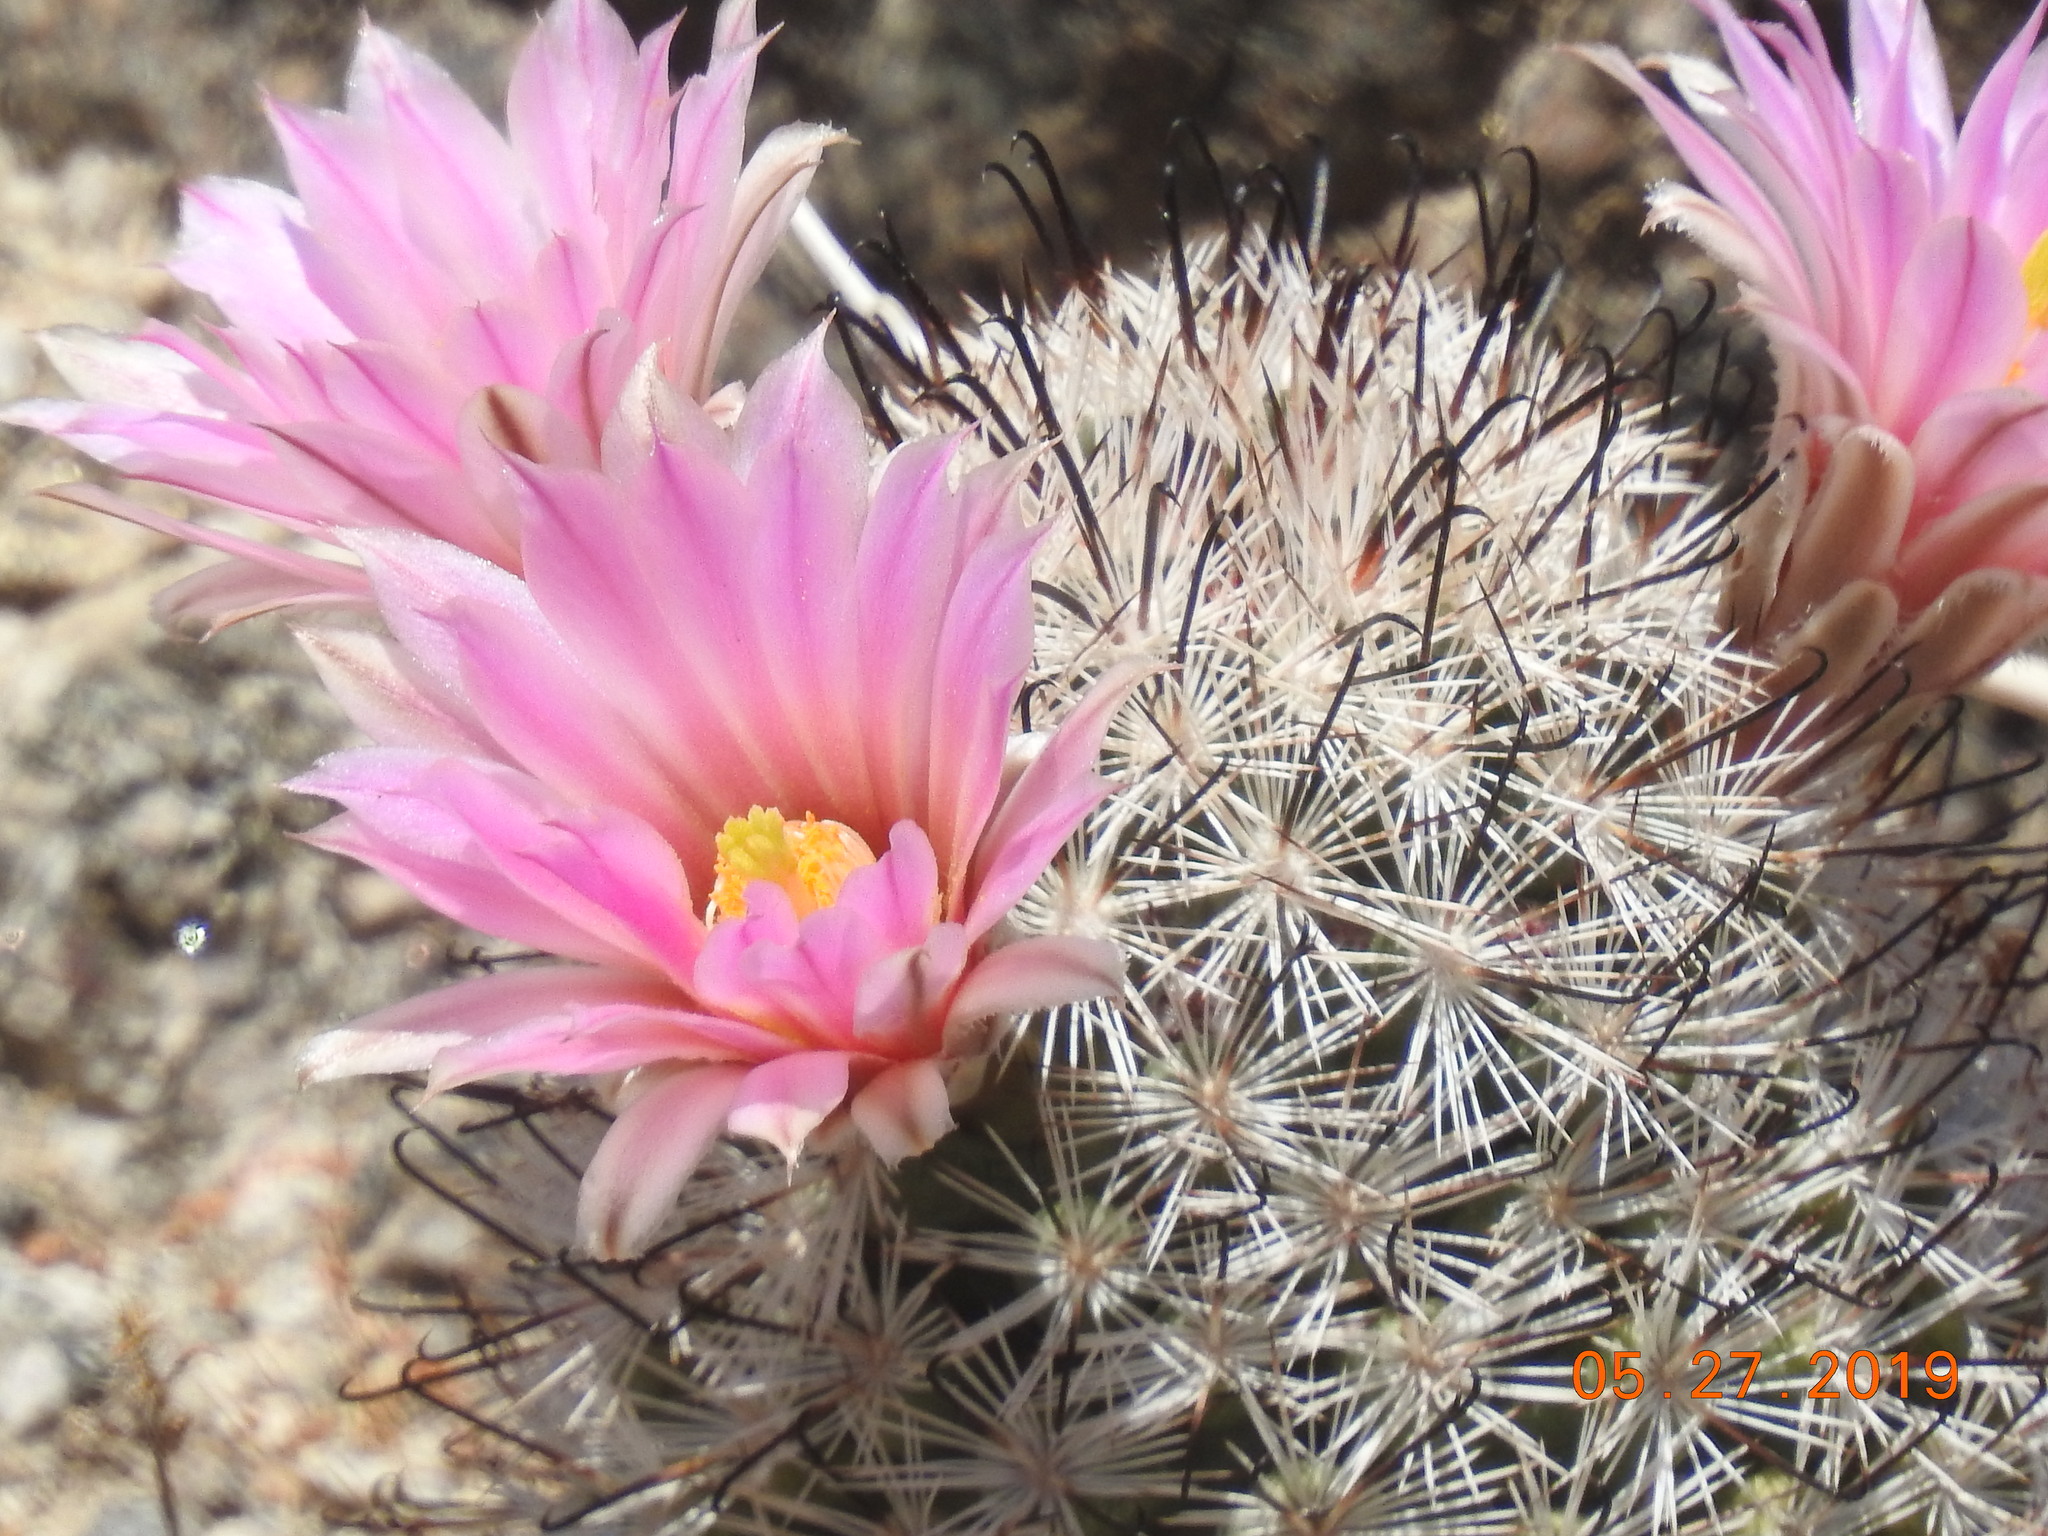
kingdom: Plantae
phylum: Tracheophyta
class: Magnoliopsida
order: Caryophyllales
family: Cactaceae
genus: Cochemiea
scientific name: Cochemiea tetrancistra
